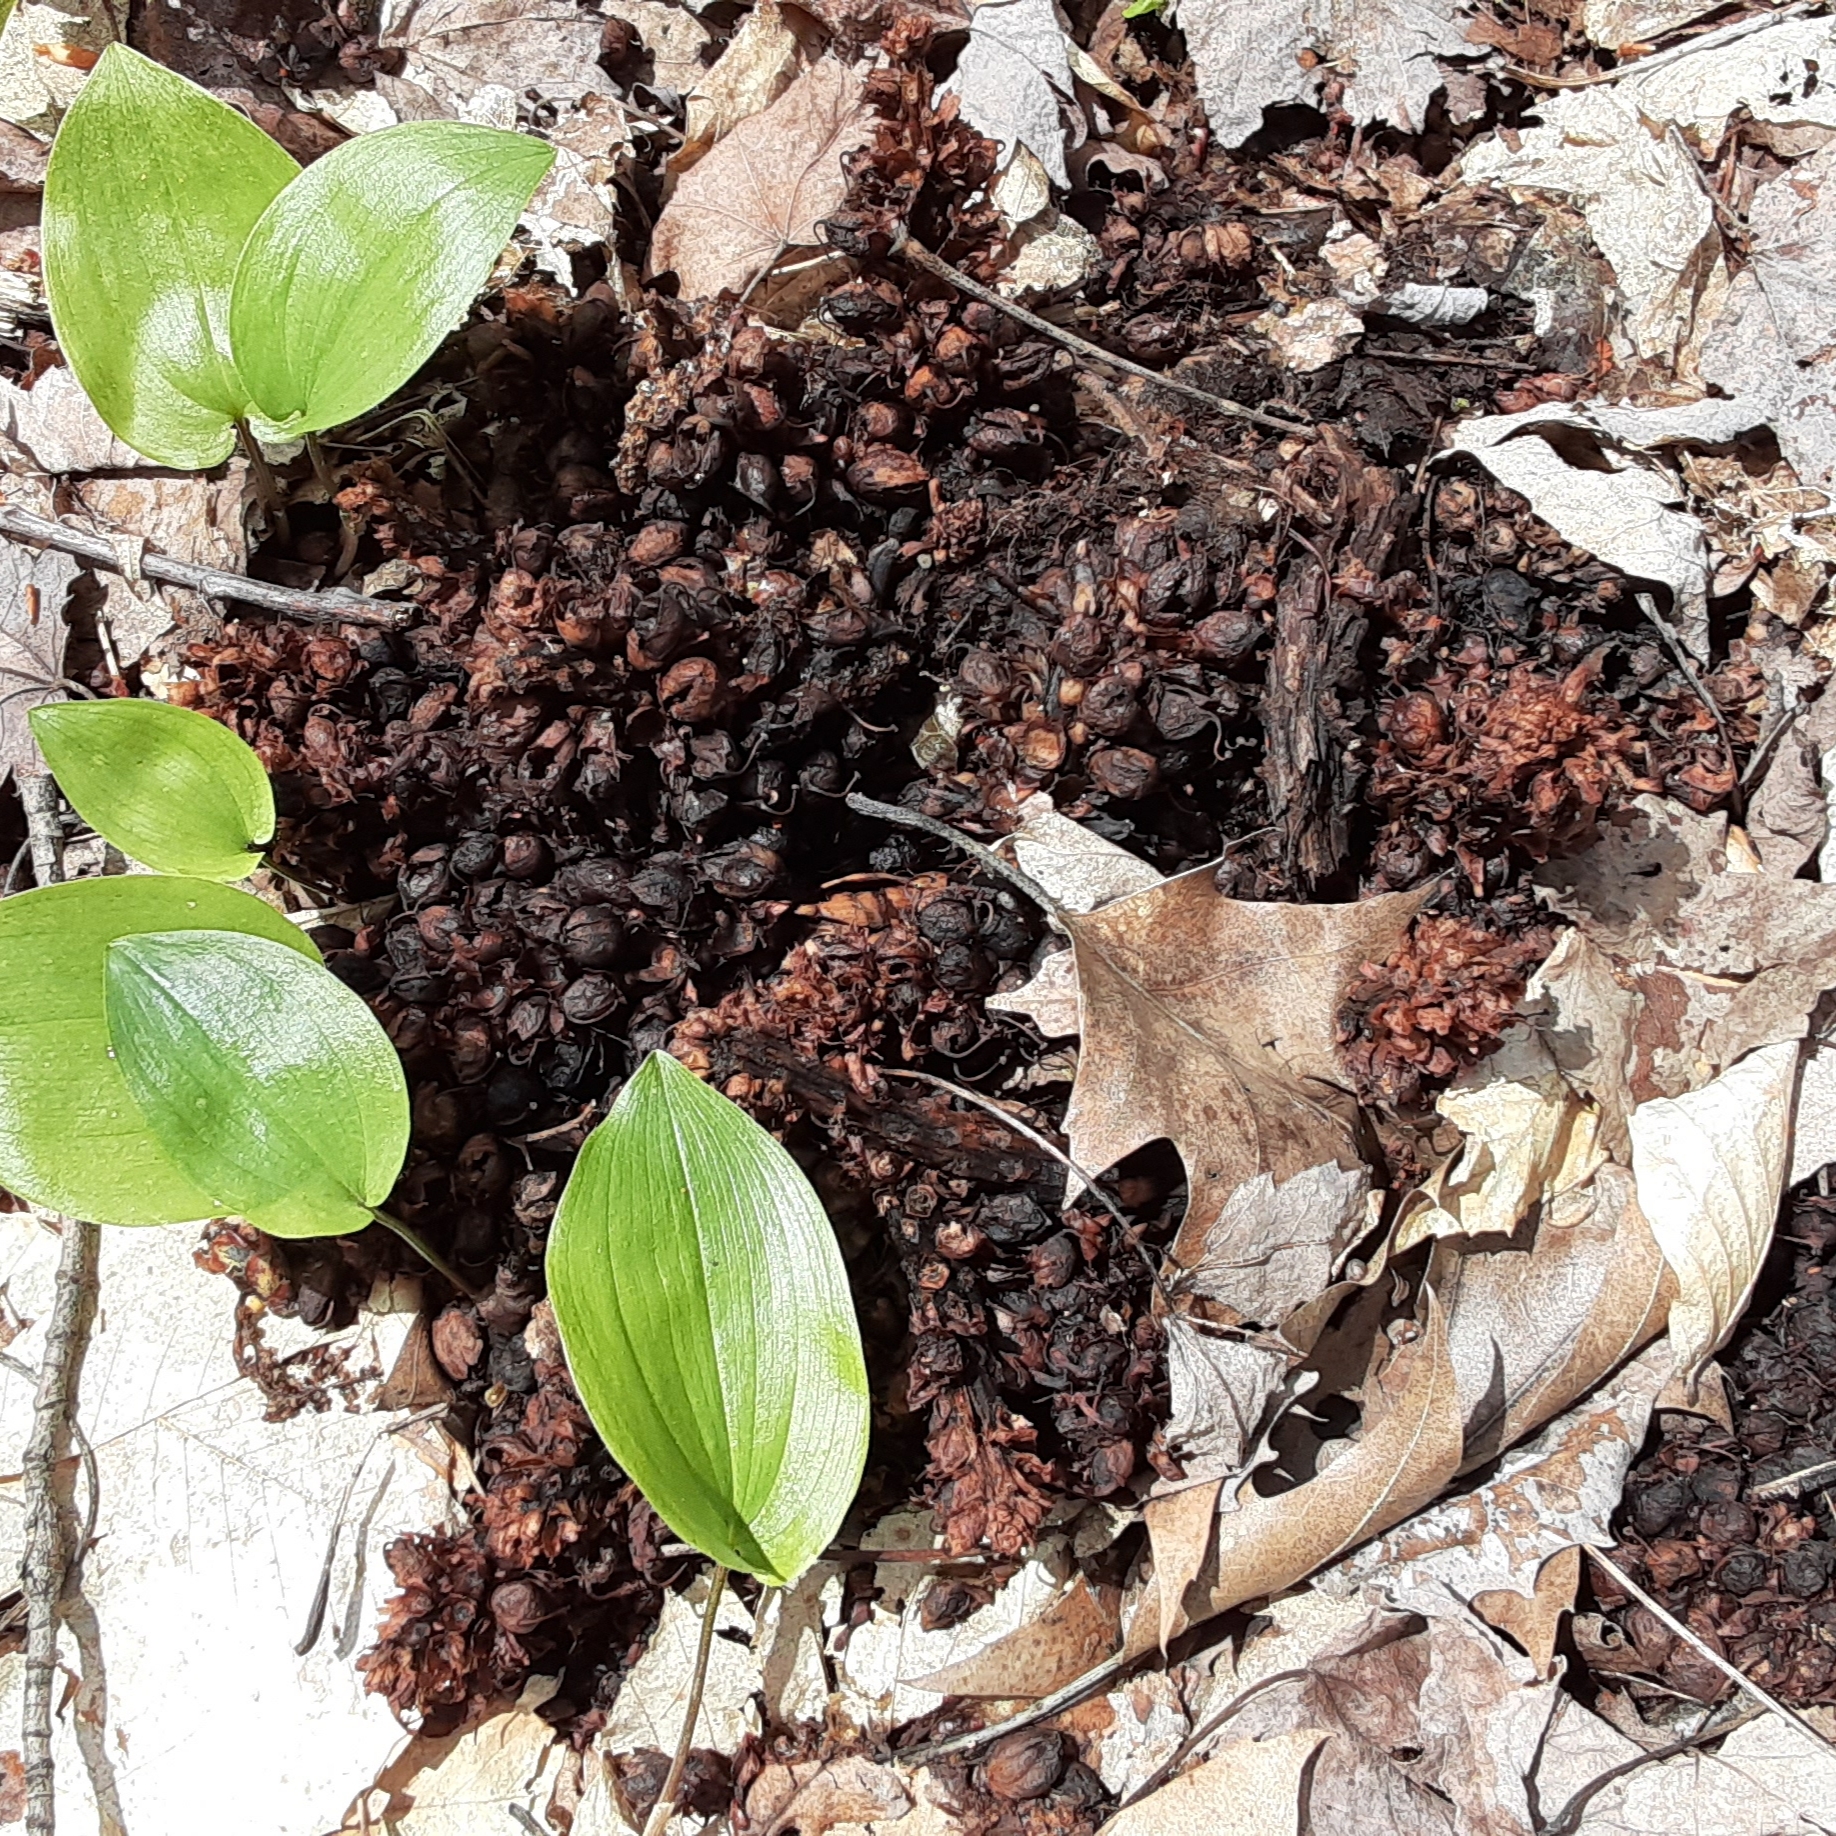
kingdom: Plantae
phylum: Tracheophyta
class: Magnoliopsida
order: Lamiales
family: Orobanchaceae
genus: Conopholis
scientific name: Conopholis americana
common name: American cancer-root
